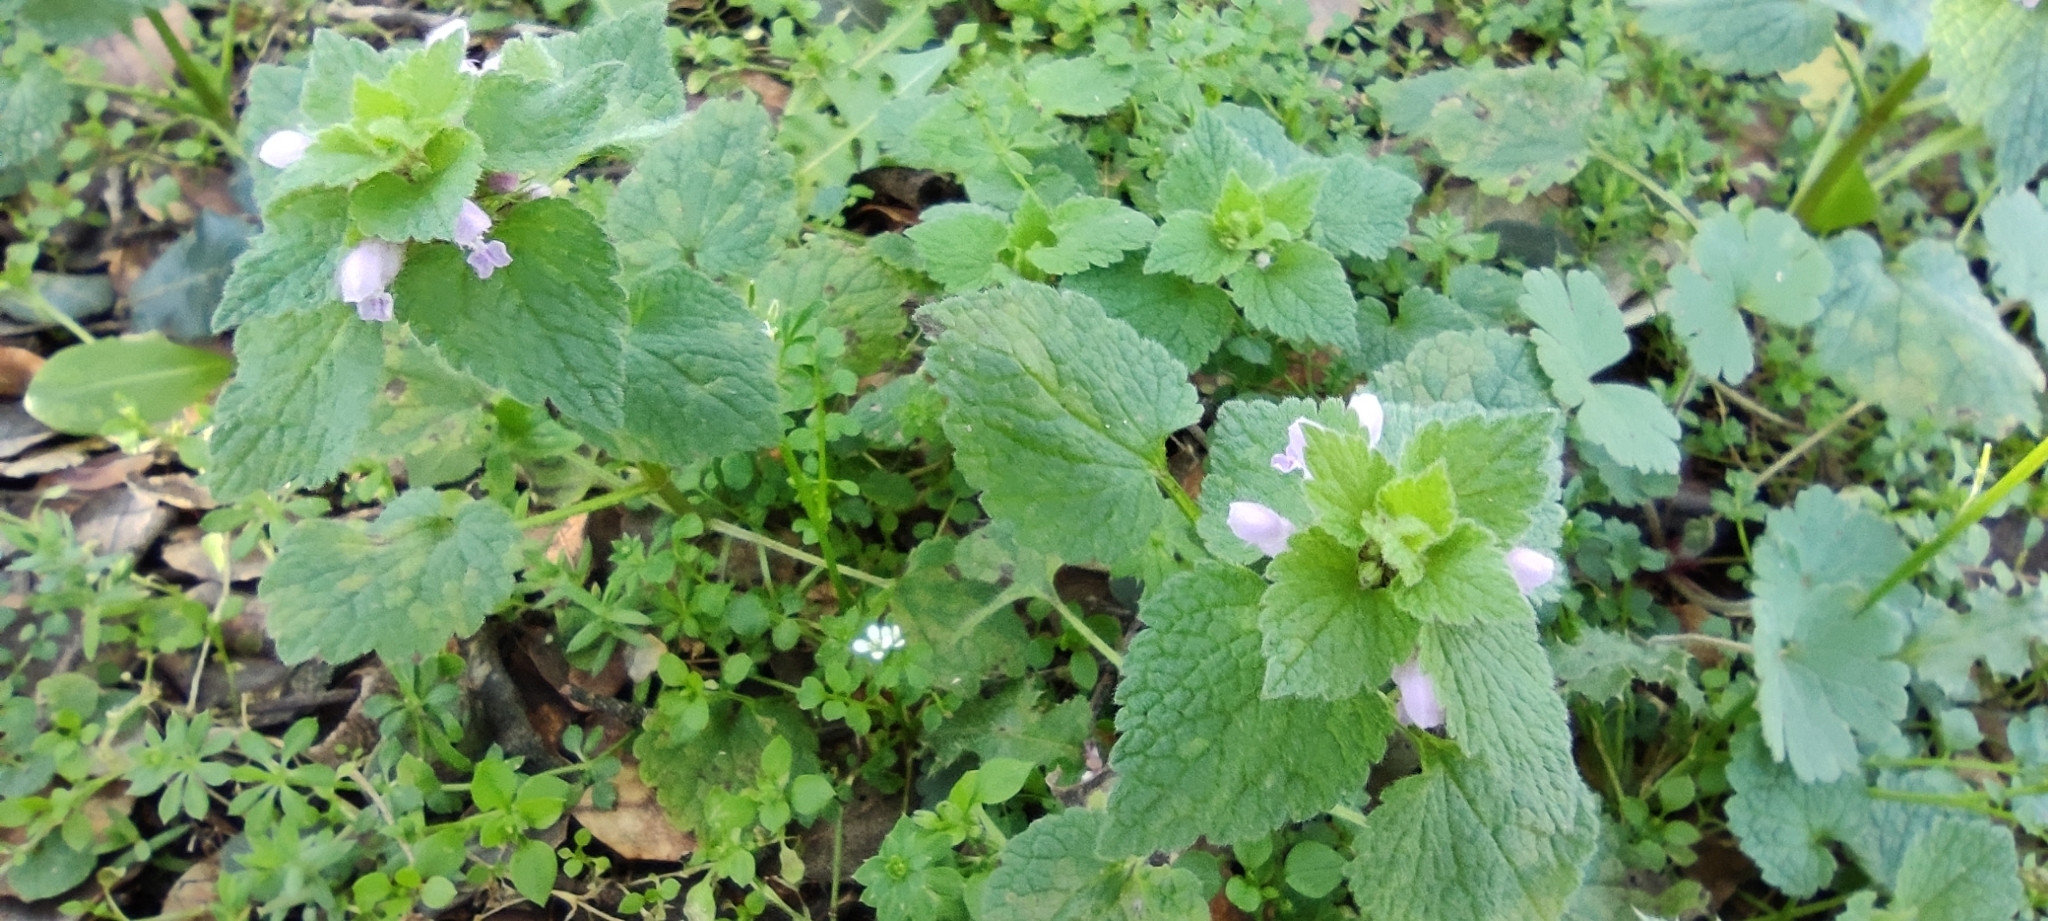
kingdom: Plantae
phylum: Tracheophyta
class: Magnoliopsida
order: Lamiales
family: Lamiaceae
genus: Lamium
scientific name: Lamium purpureum
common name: Red dead-nettle
